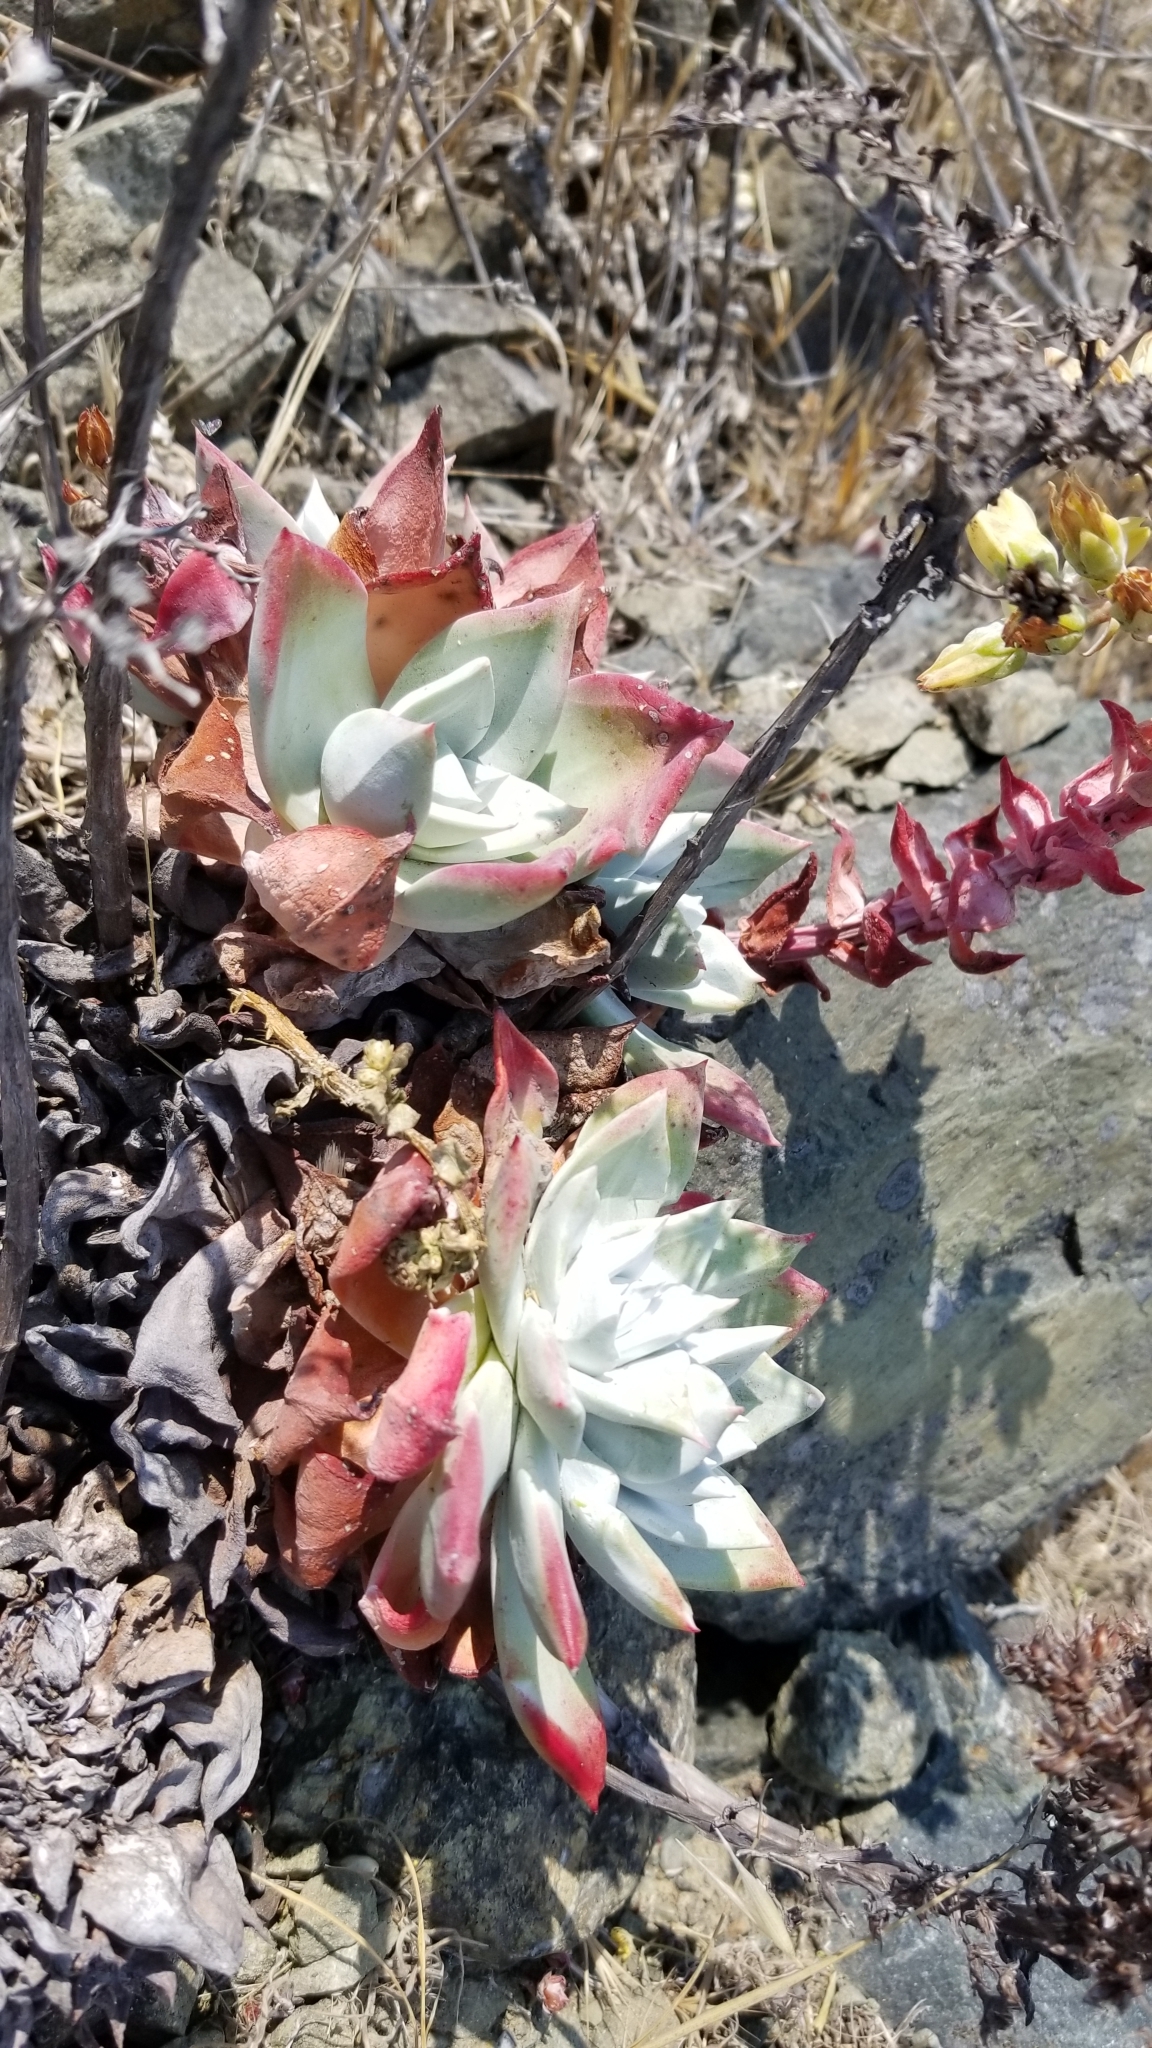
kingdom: Plantae
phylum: Tracheophyta
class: Magnoliopsida
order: Saxifragales
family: Crassulaceae
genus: Dudleya
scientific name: Dudleya farinosa
